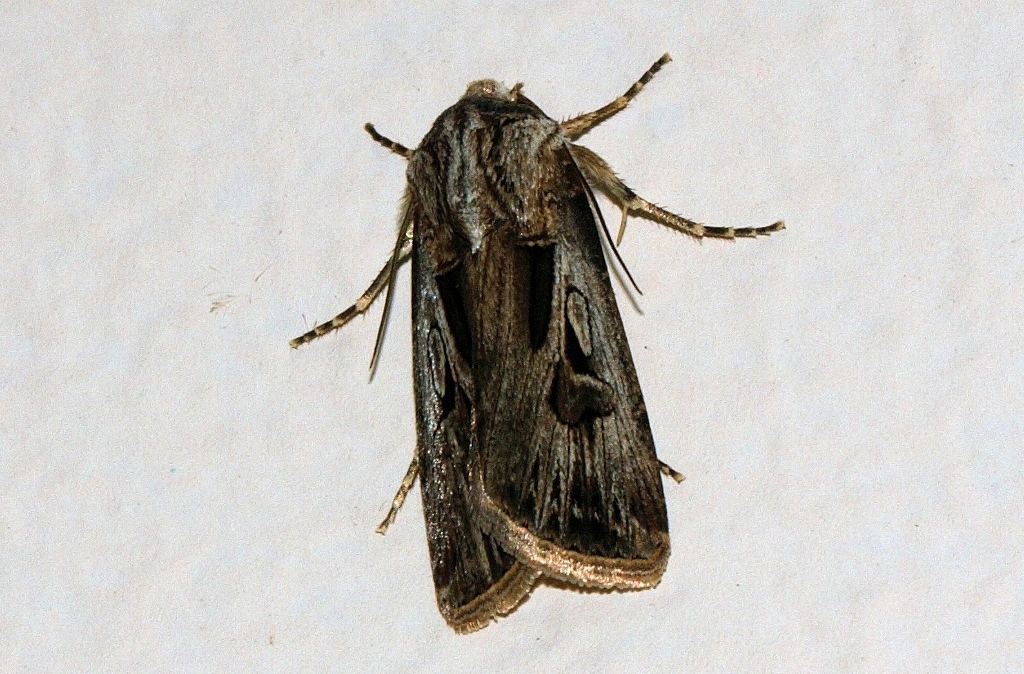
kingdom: Animalia
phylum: Arthropoda
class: Insecta
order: Lepidoptera
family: Noctuidae
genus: Agrotis
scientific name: Agrotis
